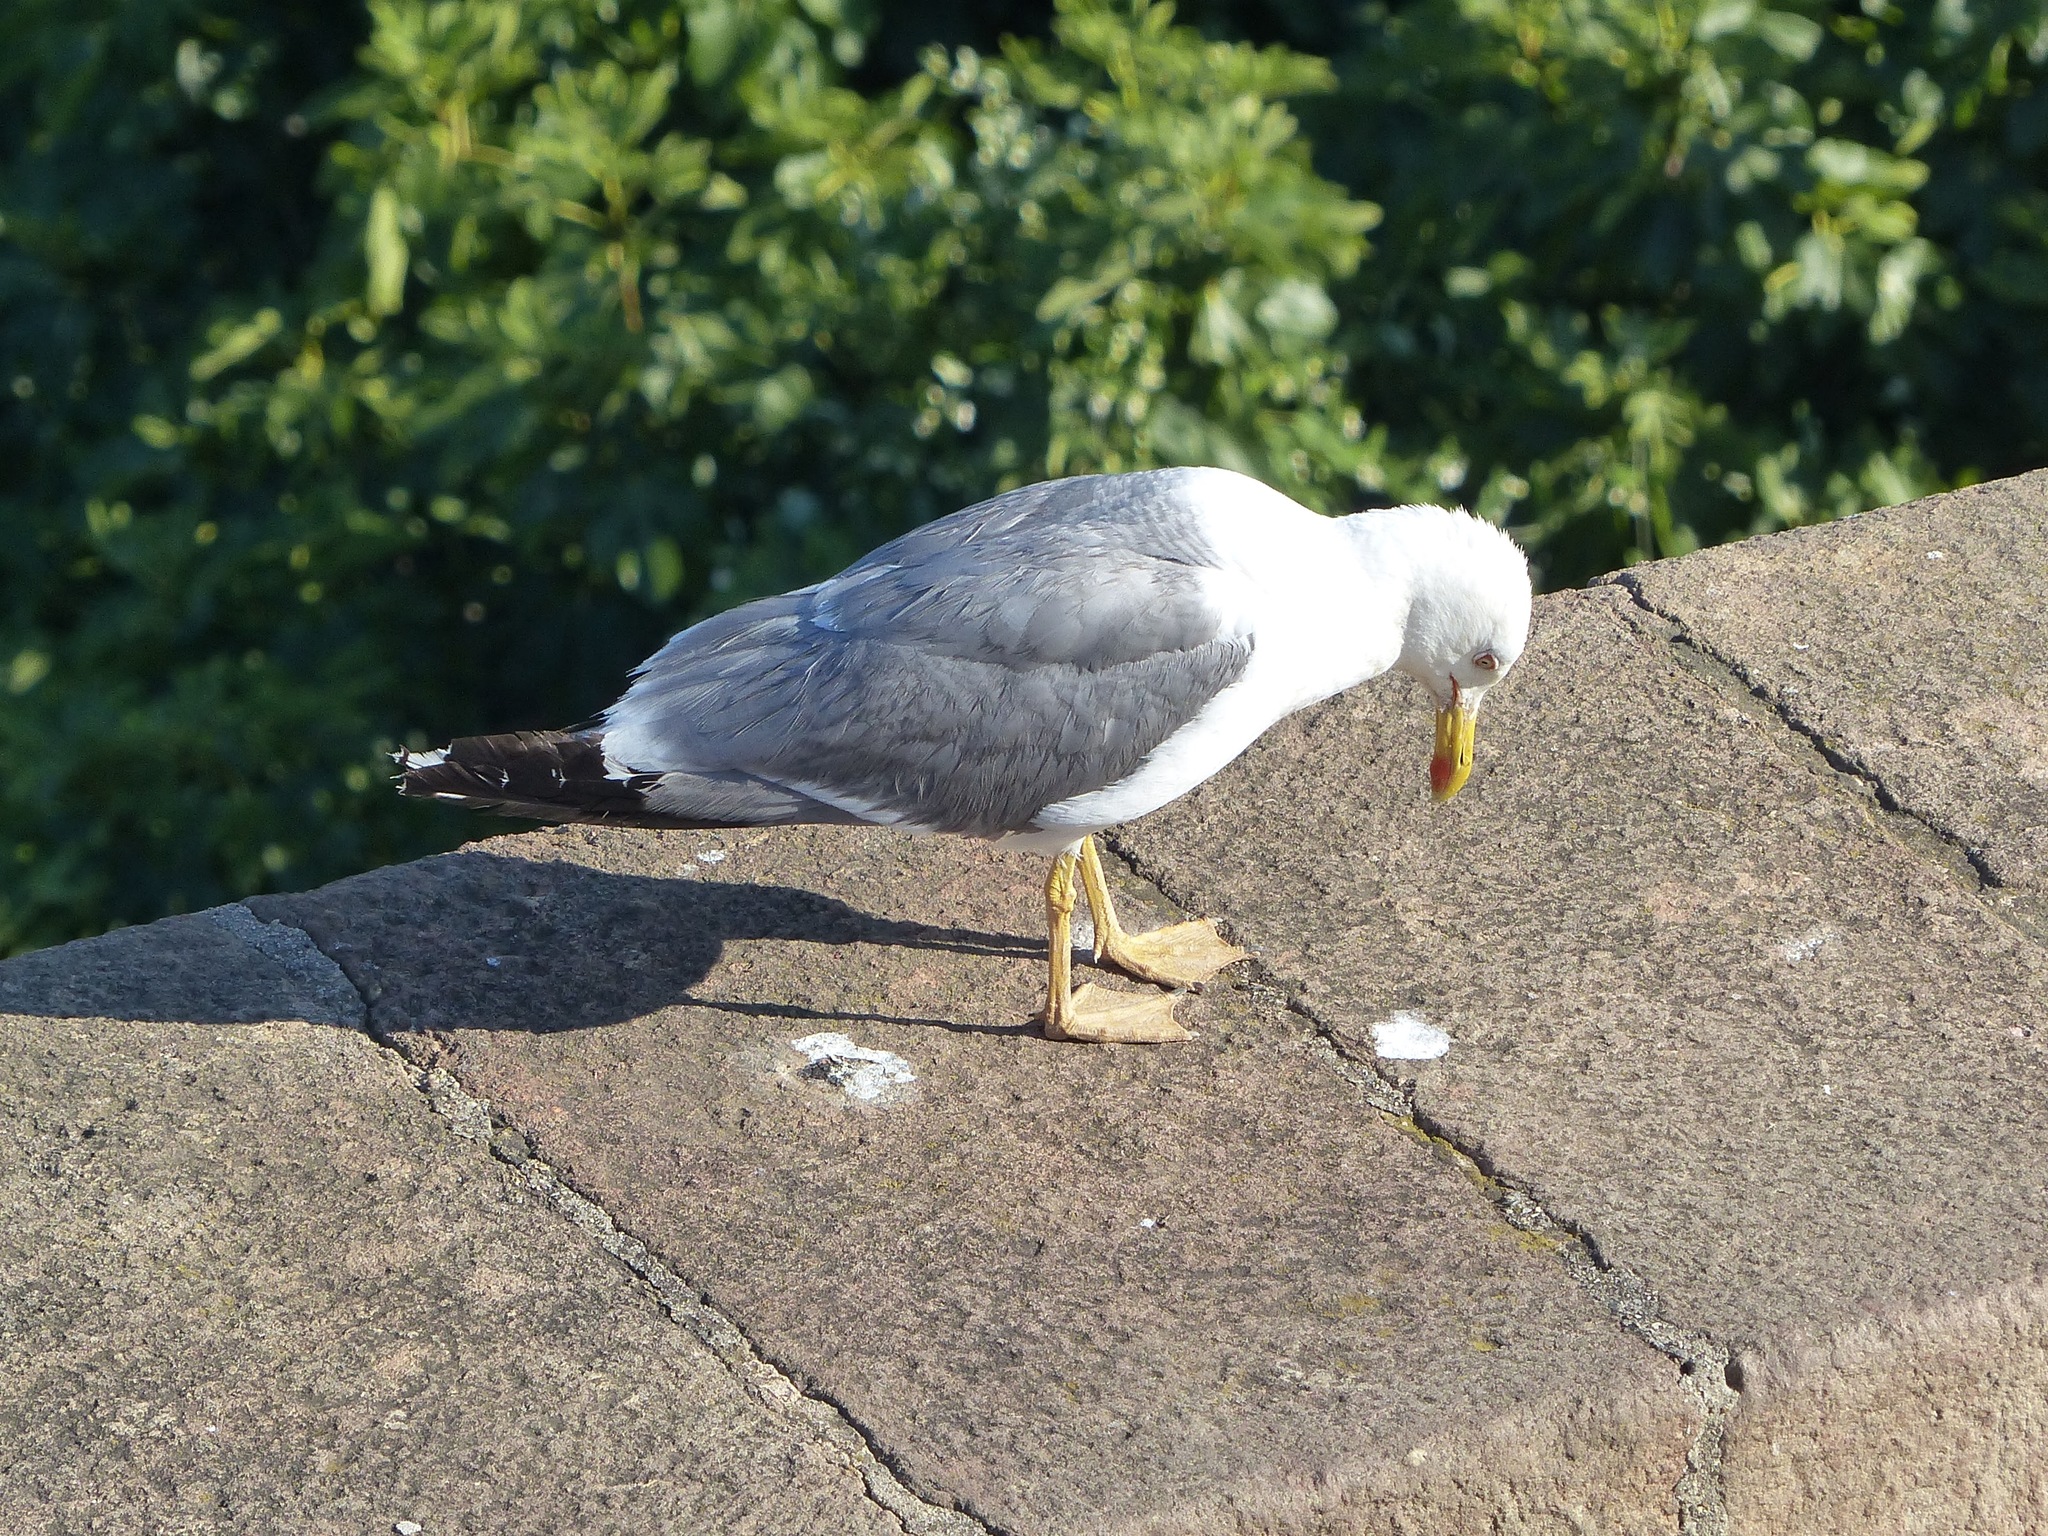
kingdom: Animalia
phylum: Chordata
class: Aves
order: Charadriiformes
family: Laridae
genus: Larus
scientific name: Larus michahellis
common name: Yellow-legged gull
